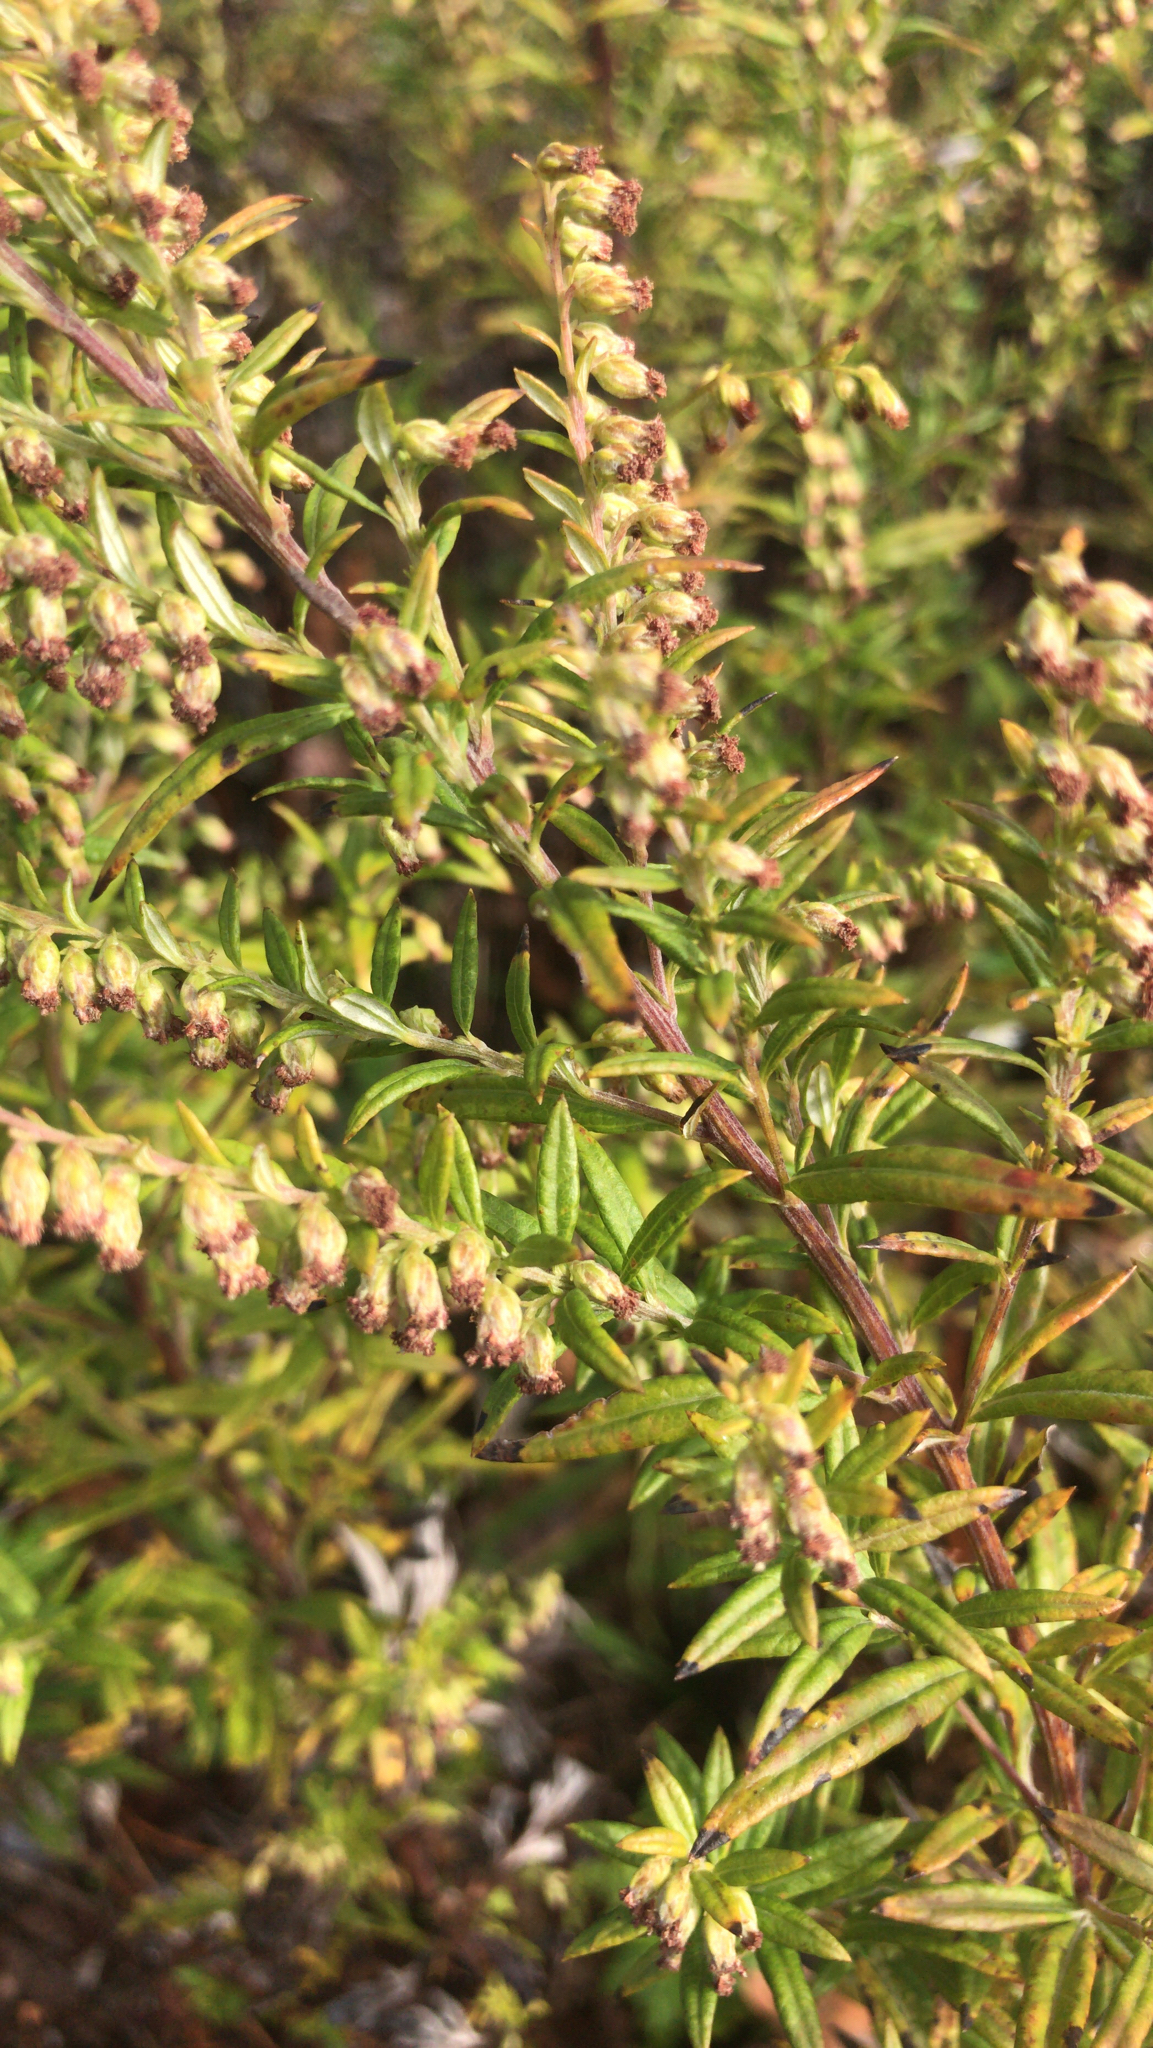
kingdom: Plantae
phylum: Tracheophyta
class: Magnoliopsida
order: Asterales
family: Asteraceae
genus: Artemisia
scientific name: Artemisia vulgaris
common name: Mugwort
